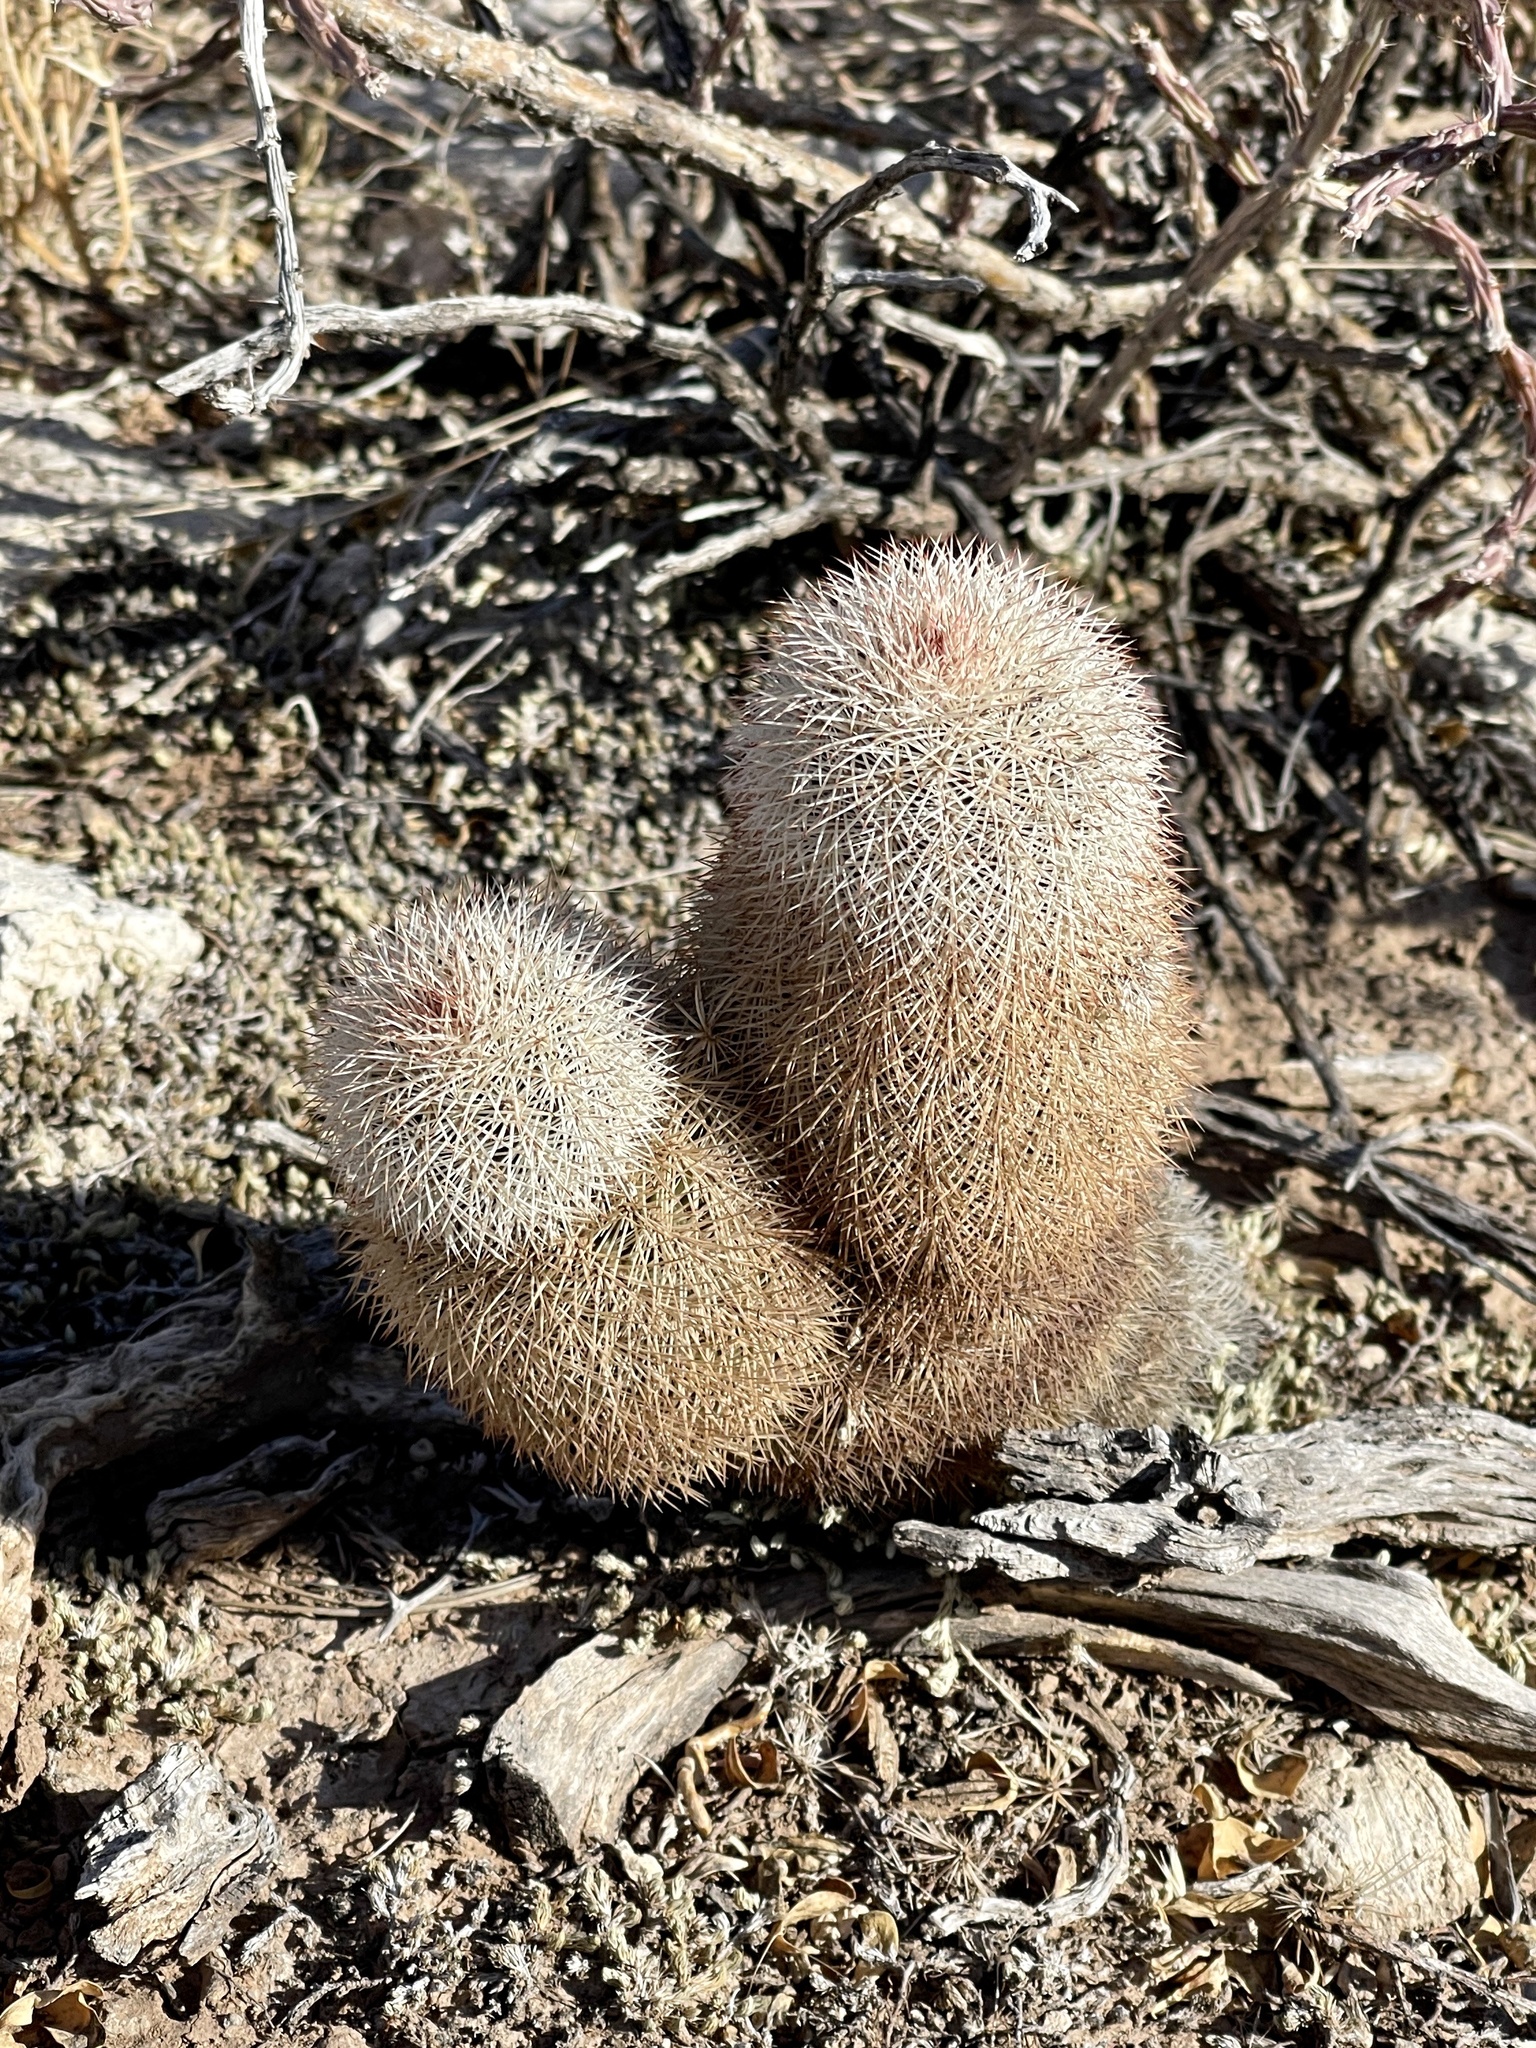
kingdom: Plantae
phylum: Tracheophyta
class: Magnoliopsida
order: Caryophyllales
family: Cactaceae
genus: Echinocereus
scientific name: Echinocereus dasyacanthus
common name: Spiny hedgehog cactus
